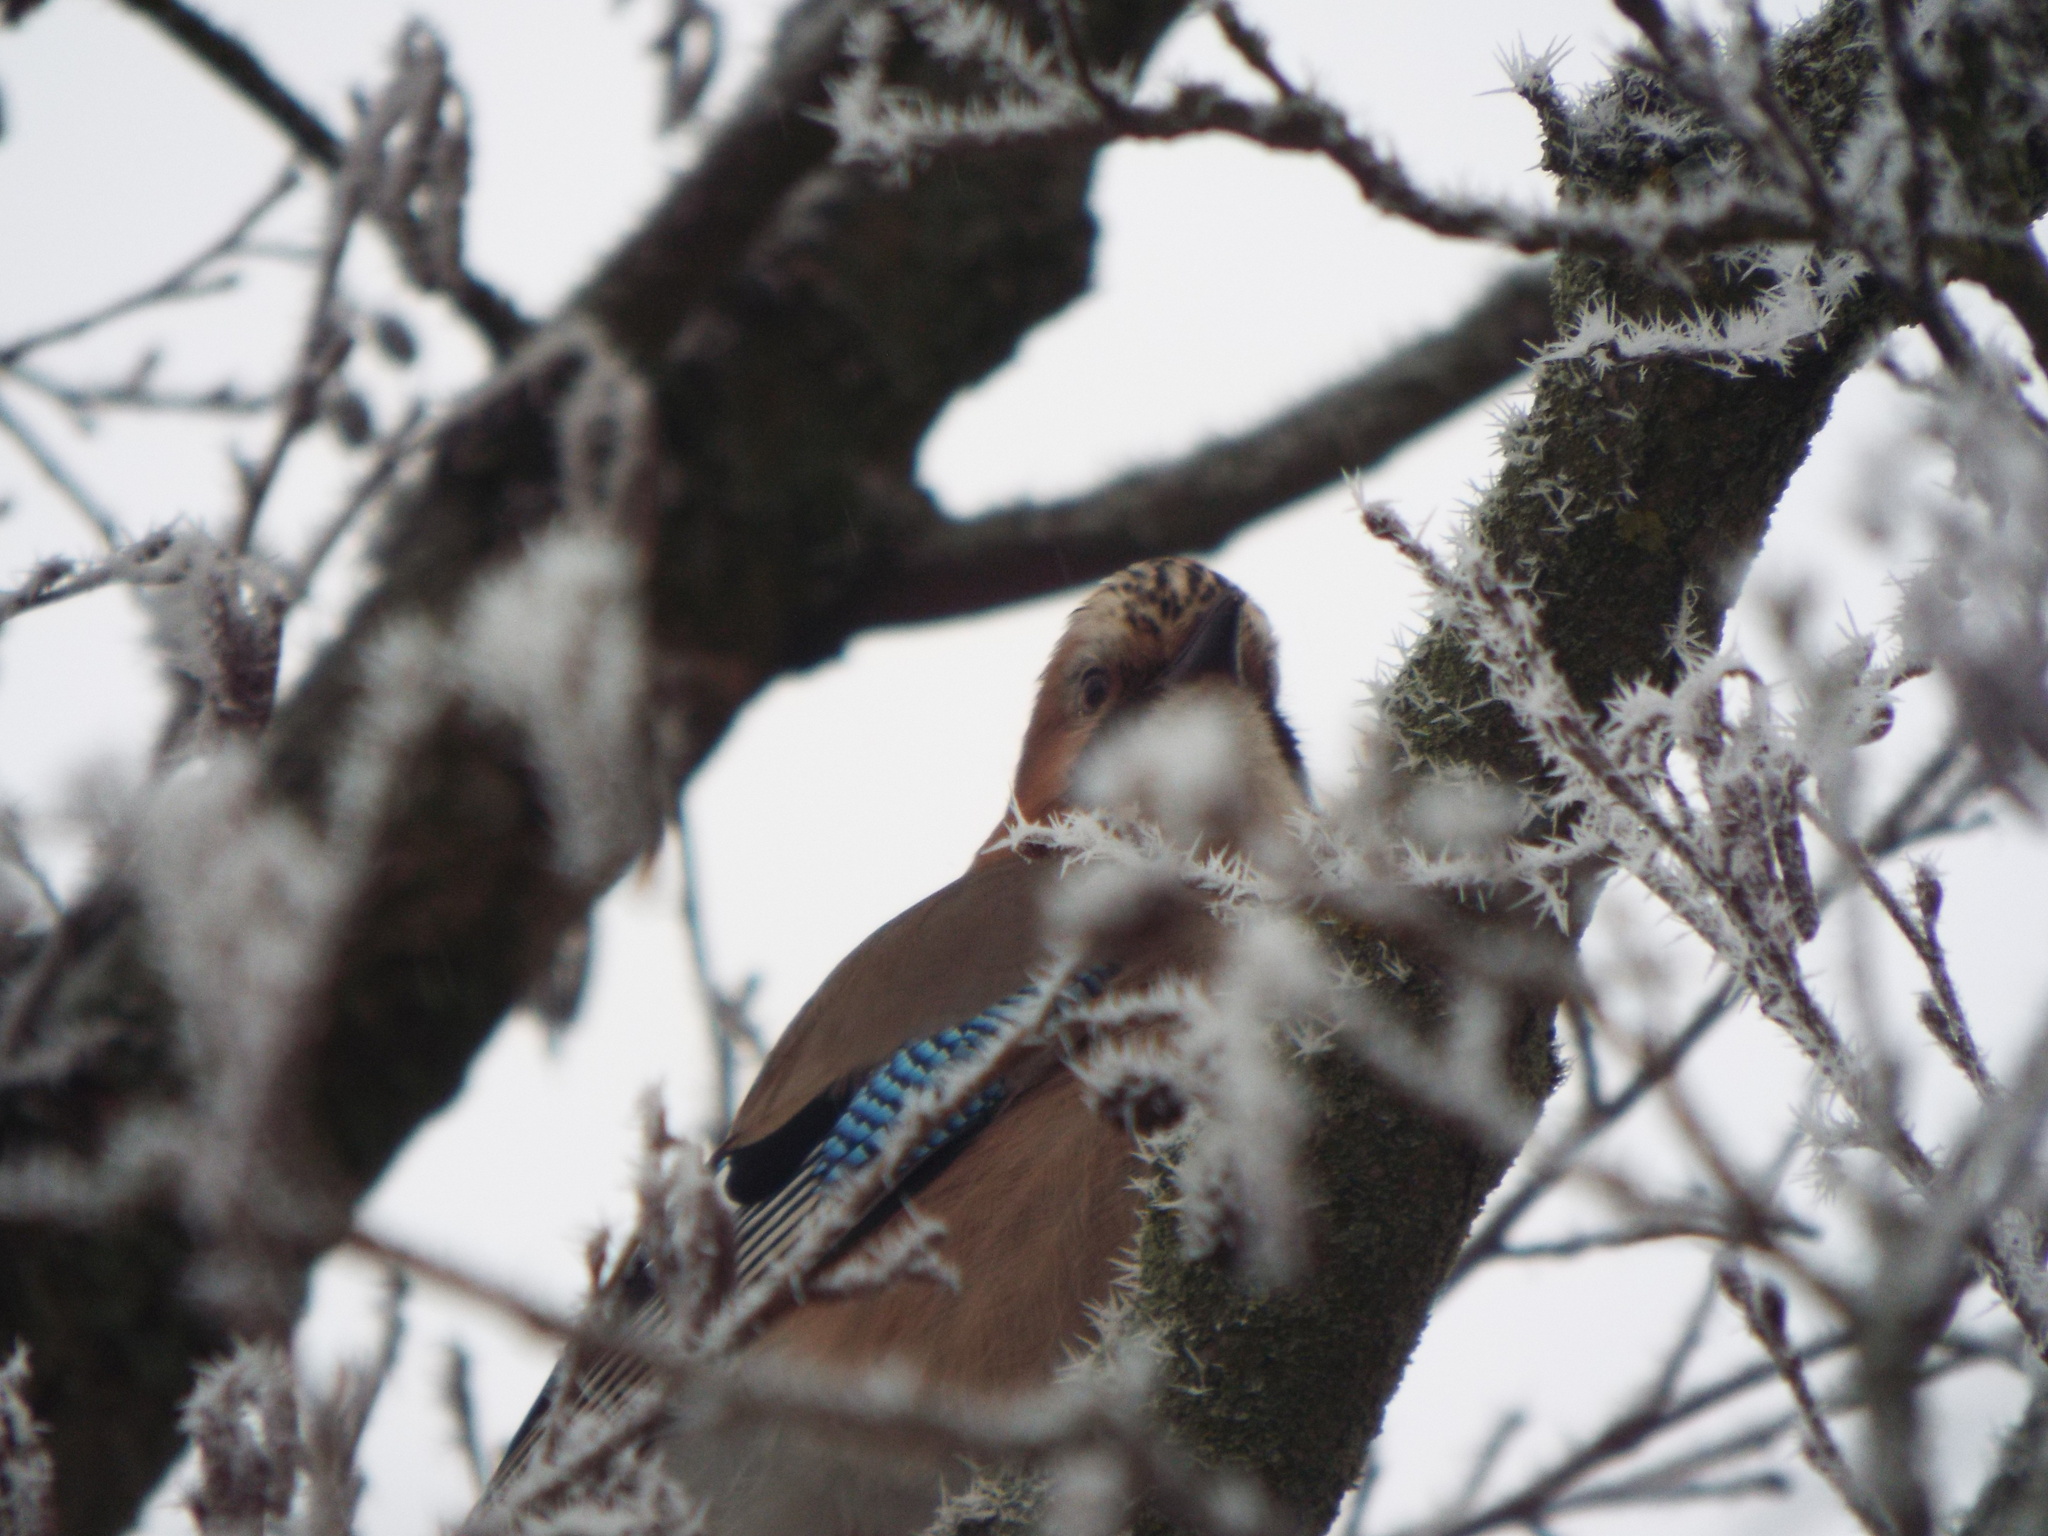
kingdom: Animalia
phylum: Chordata
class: Aves
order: Passeriformes
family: Corvidae
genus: Garrulus
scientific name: Garrulus glandarius
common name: Eurasian jay
